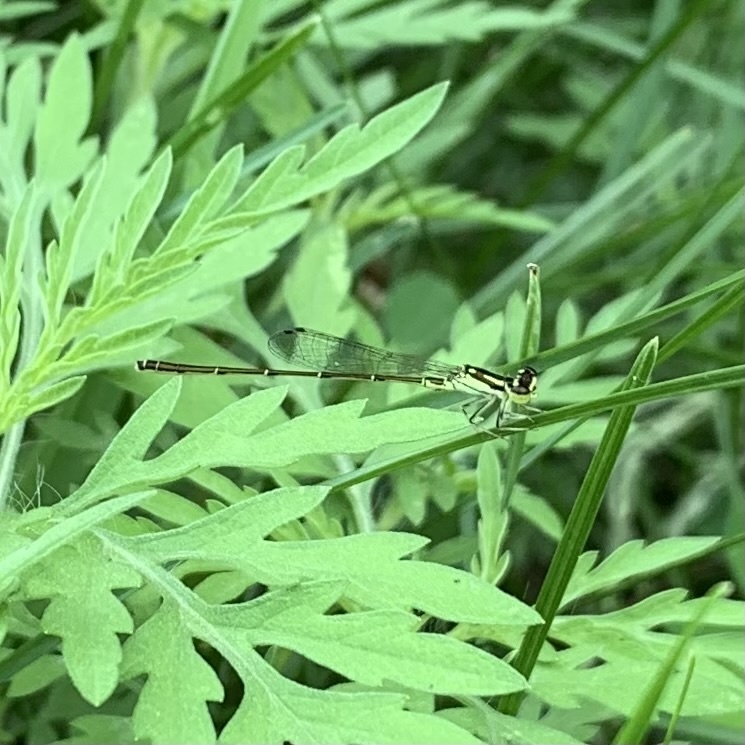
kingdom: Animalia
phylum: Arthropoda
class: Insecta
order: Odonata
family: Coenagrionidae
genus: Ischnura
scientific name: Ischnura posita
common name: Fragile forktail
